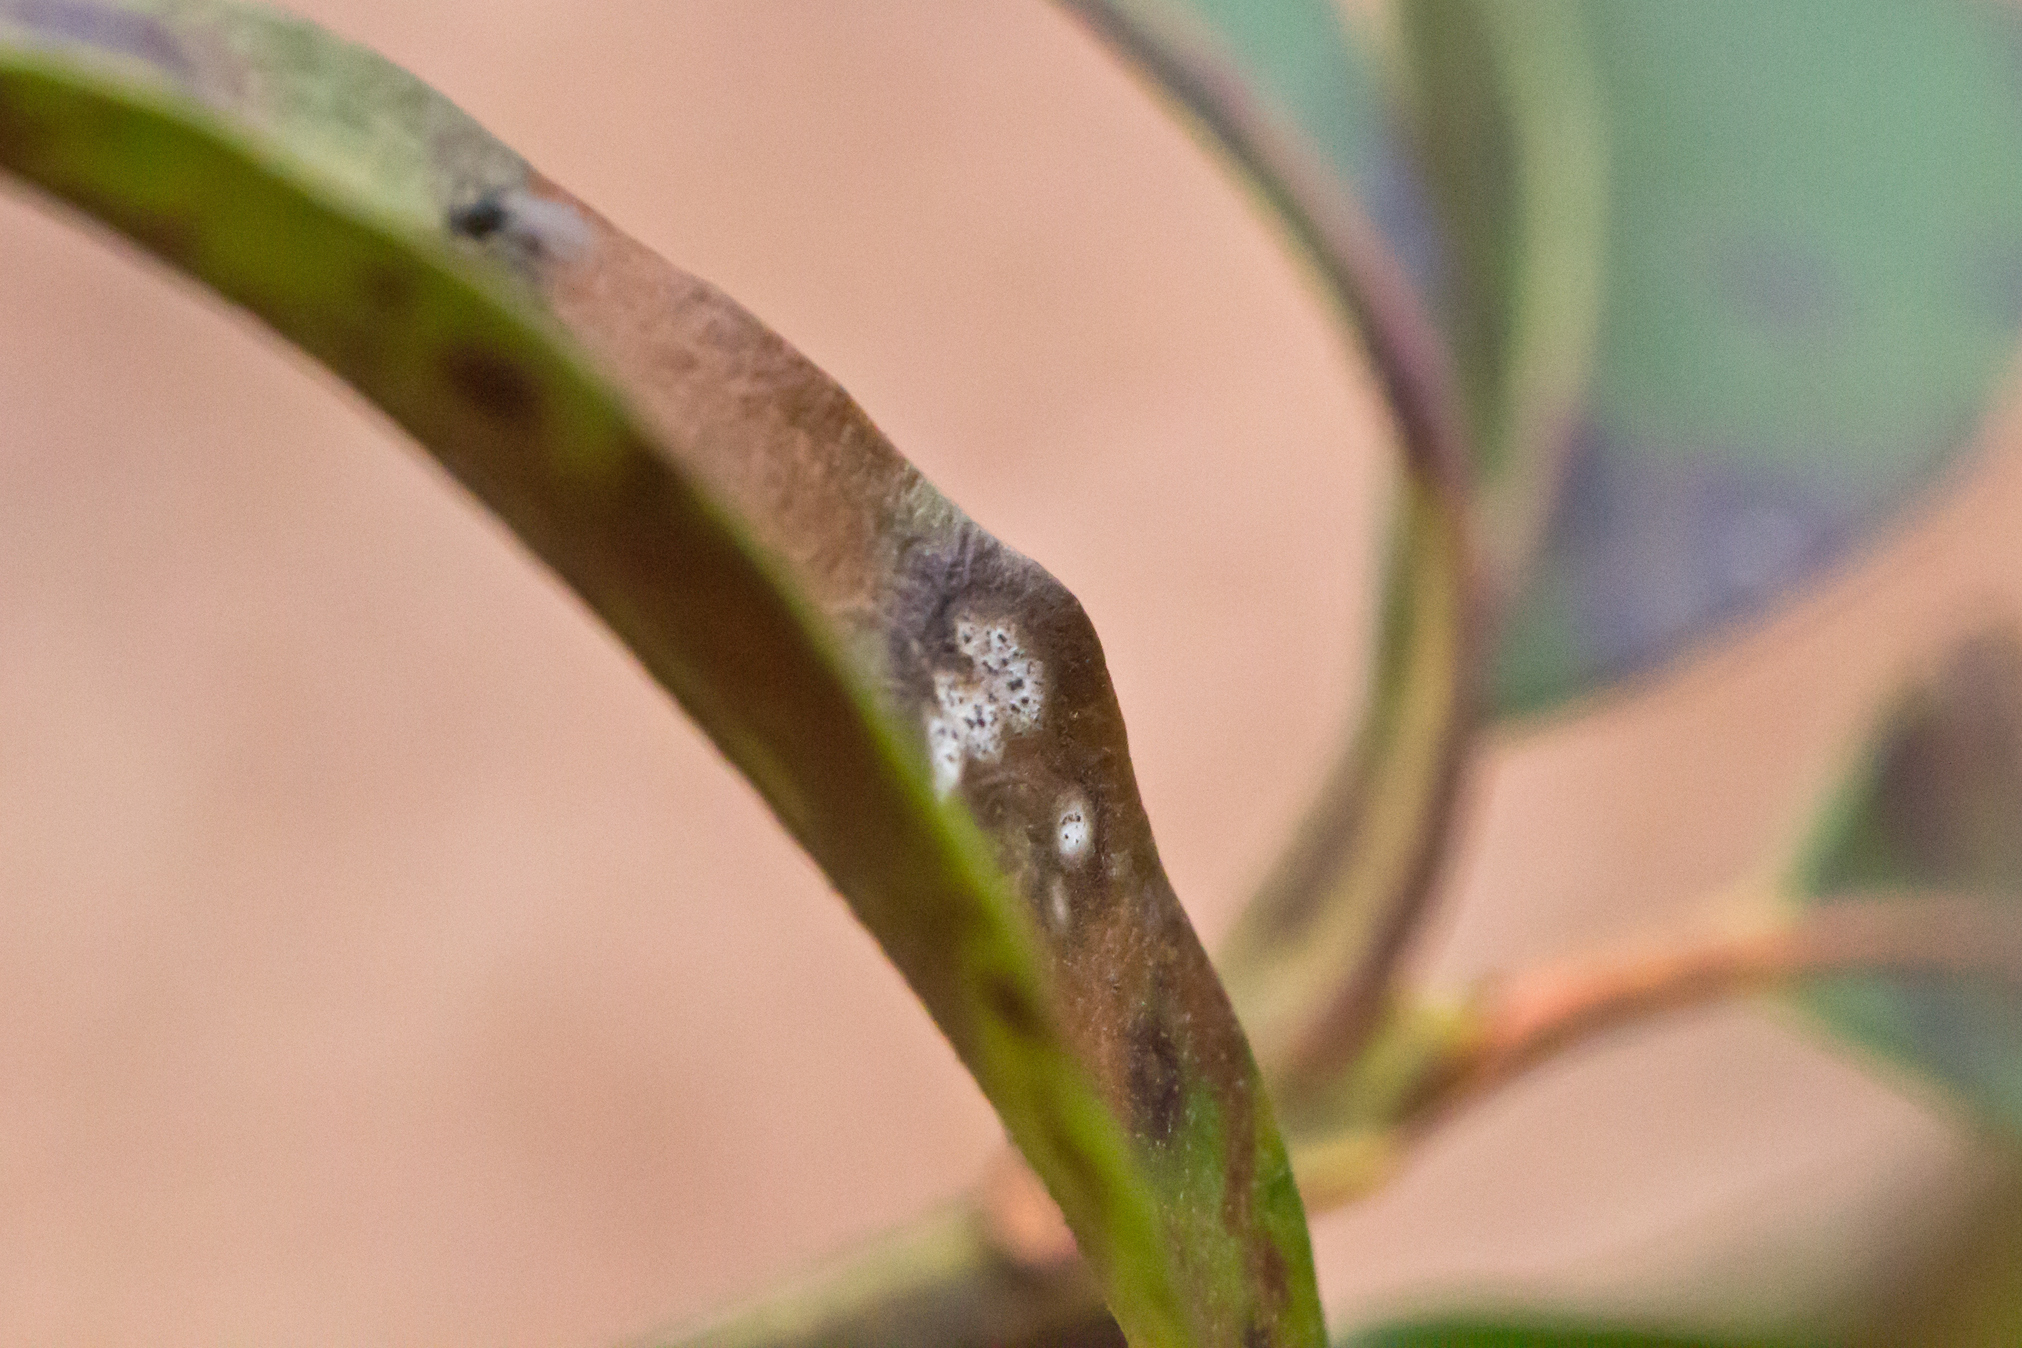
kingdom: Fungi
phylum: Ascomycota
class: Dothideomycetes
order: Mycosphaerellales
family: Mycosphaerellaceae
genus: Mycosphaerella
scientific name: Mycosphaerella colorata
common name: Mountain laurel leaf spot
